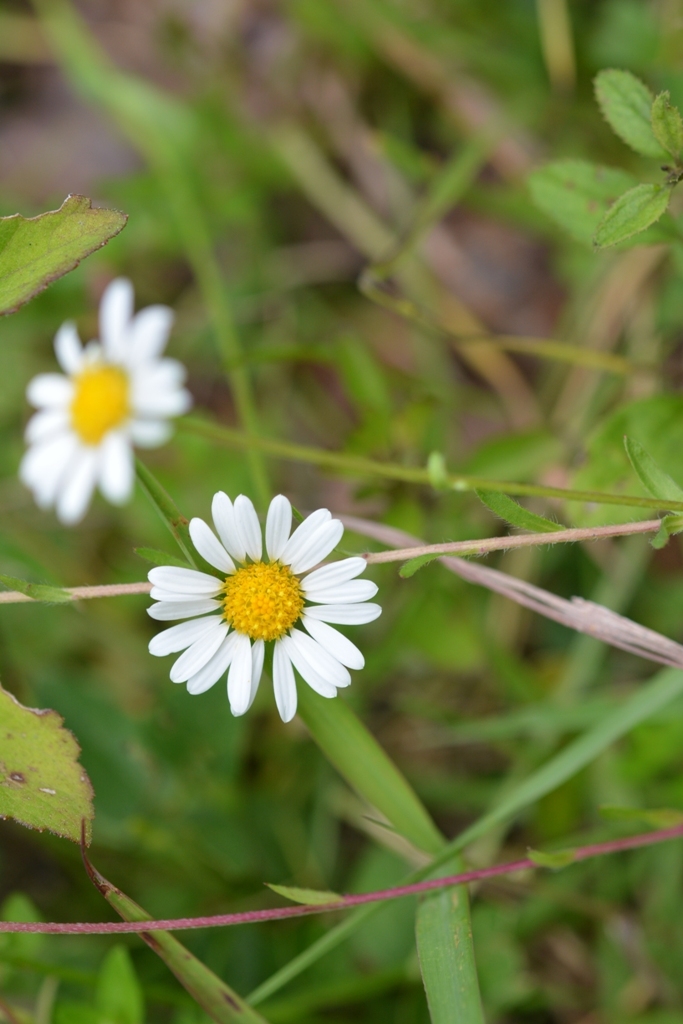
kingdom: Plantae
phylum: Tracheophyta
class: Magnoliopsida
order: Asterales
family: Asteraceae
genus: Erigeron
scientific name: Erigeron karvinskianus
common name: Mexican fleabane
